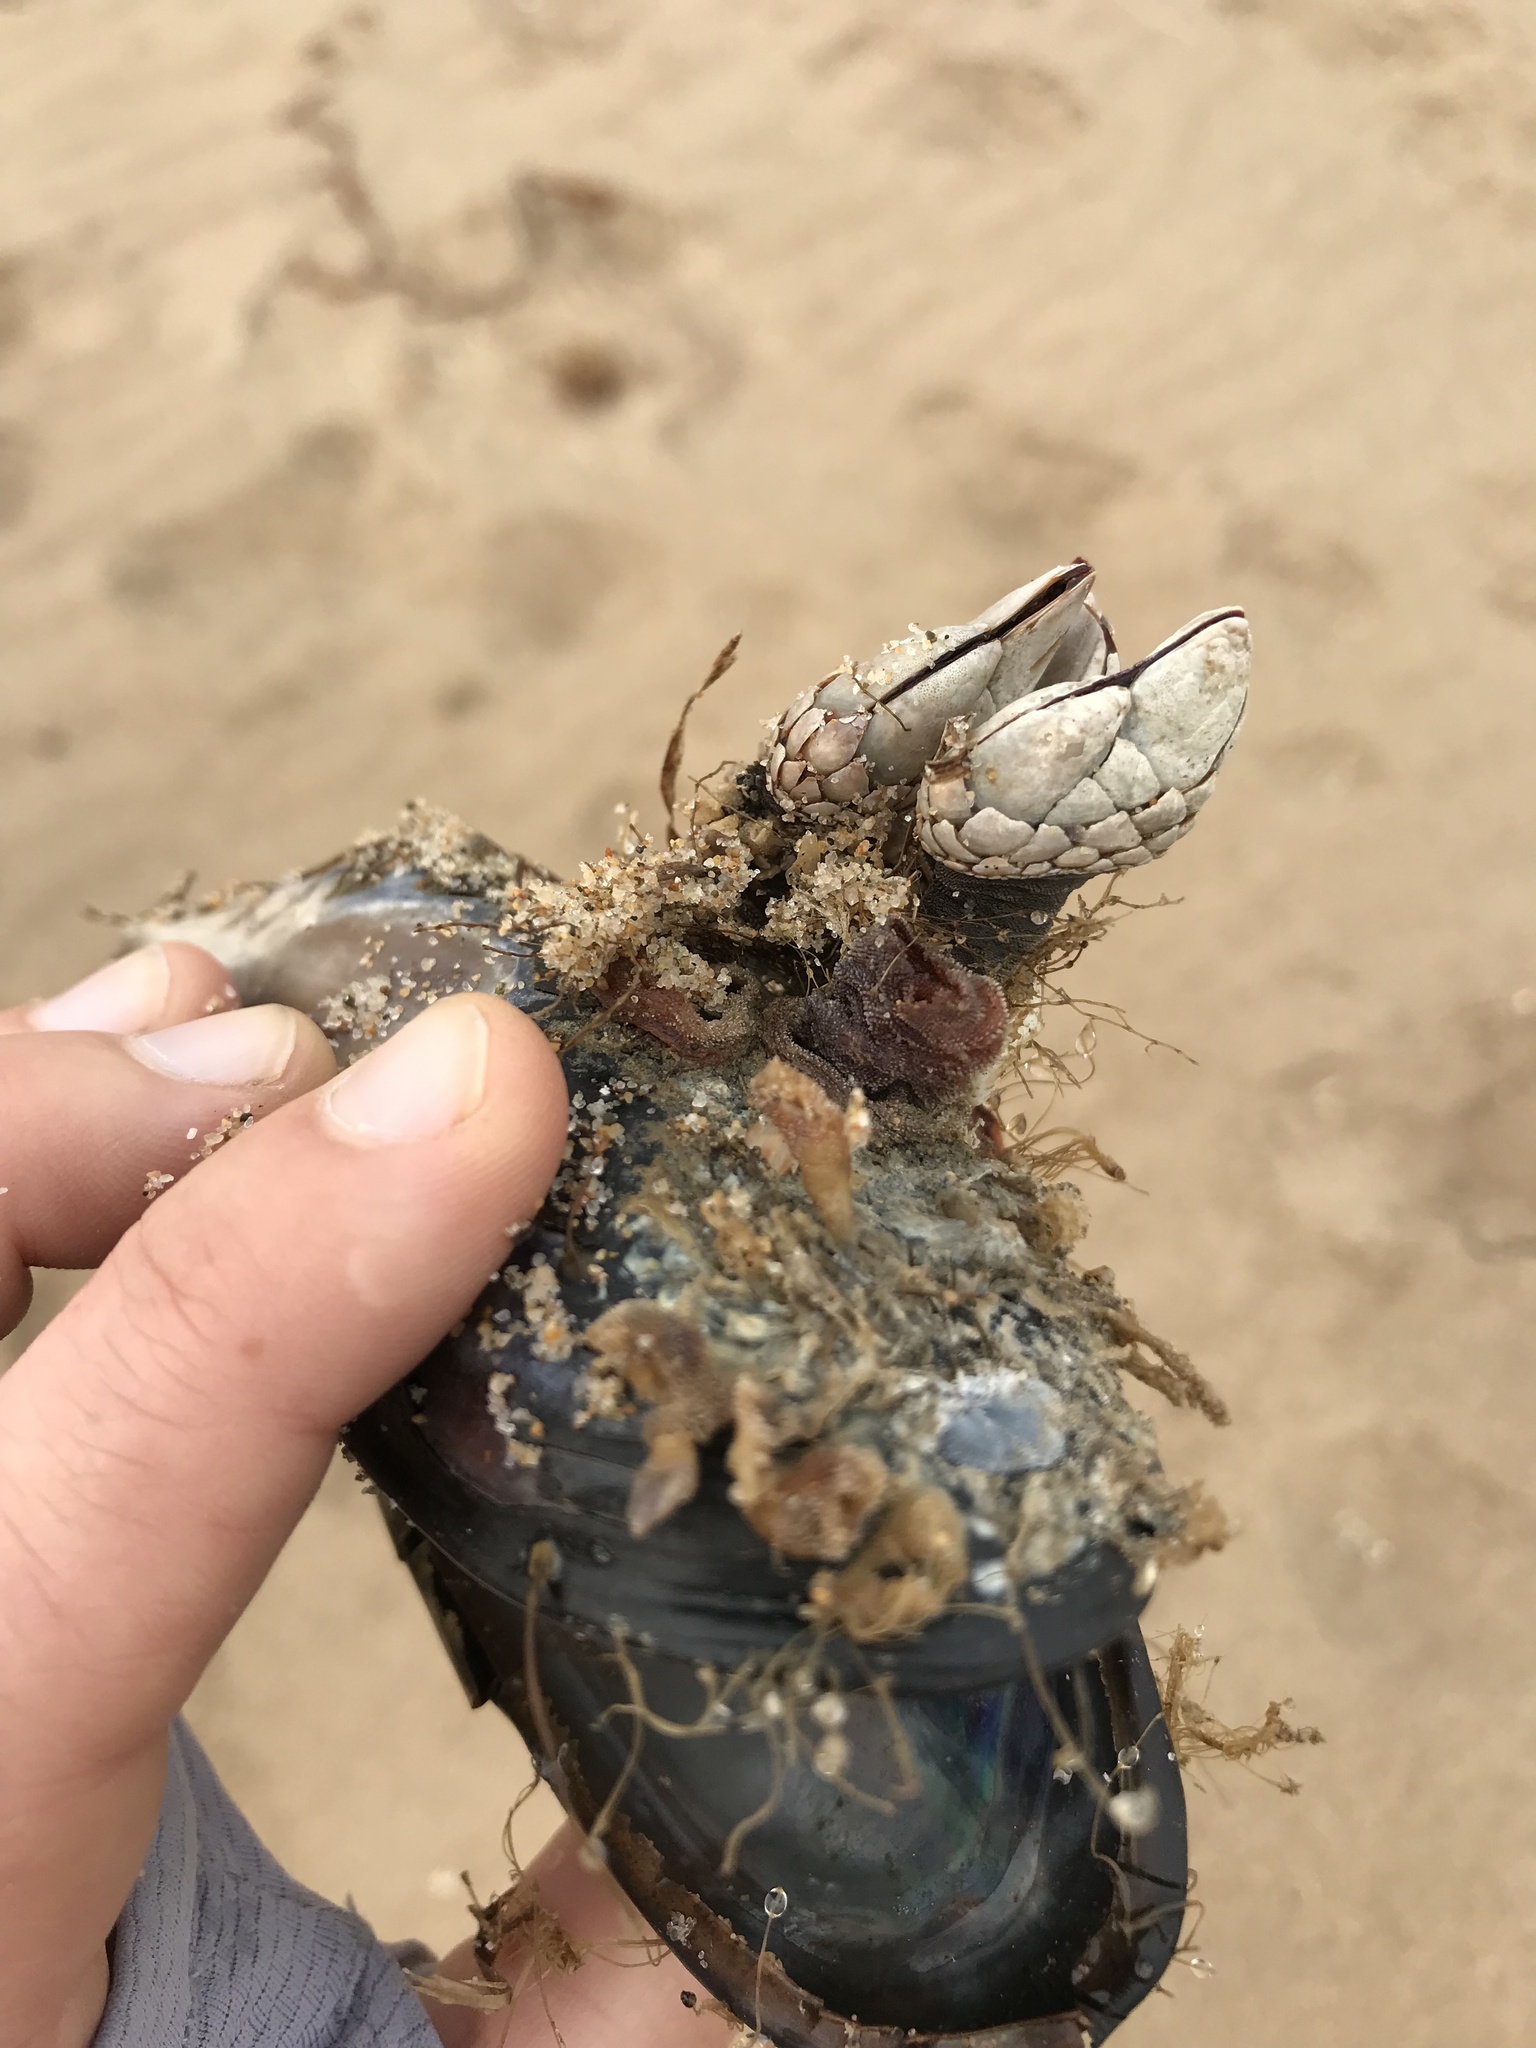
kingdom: Animalia
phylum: Arthropoda
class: Maxillopoda
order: Pedunculata
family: Pollicipedidae
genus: Pollicipes
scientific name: Pollicipes polymerus
